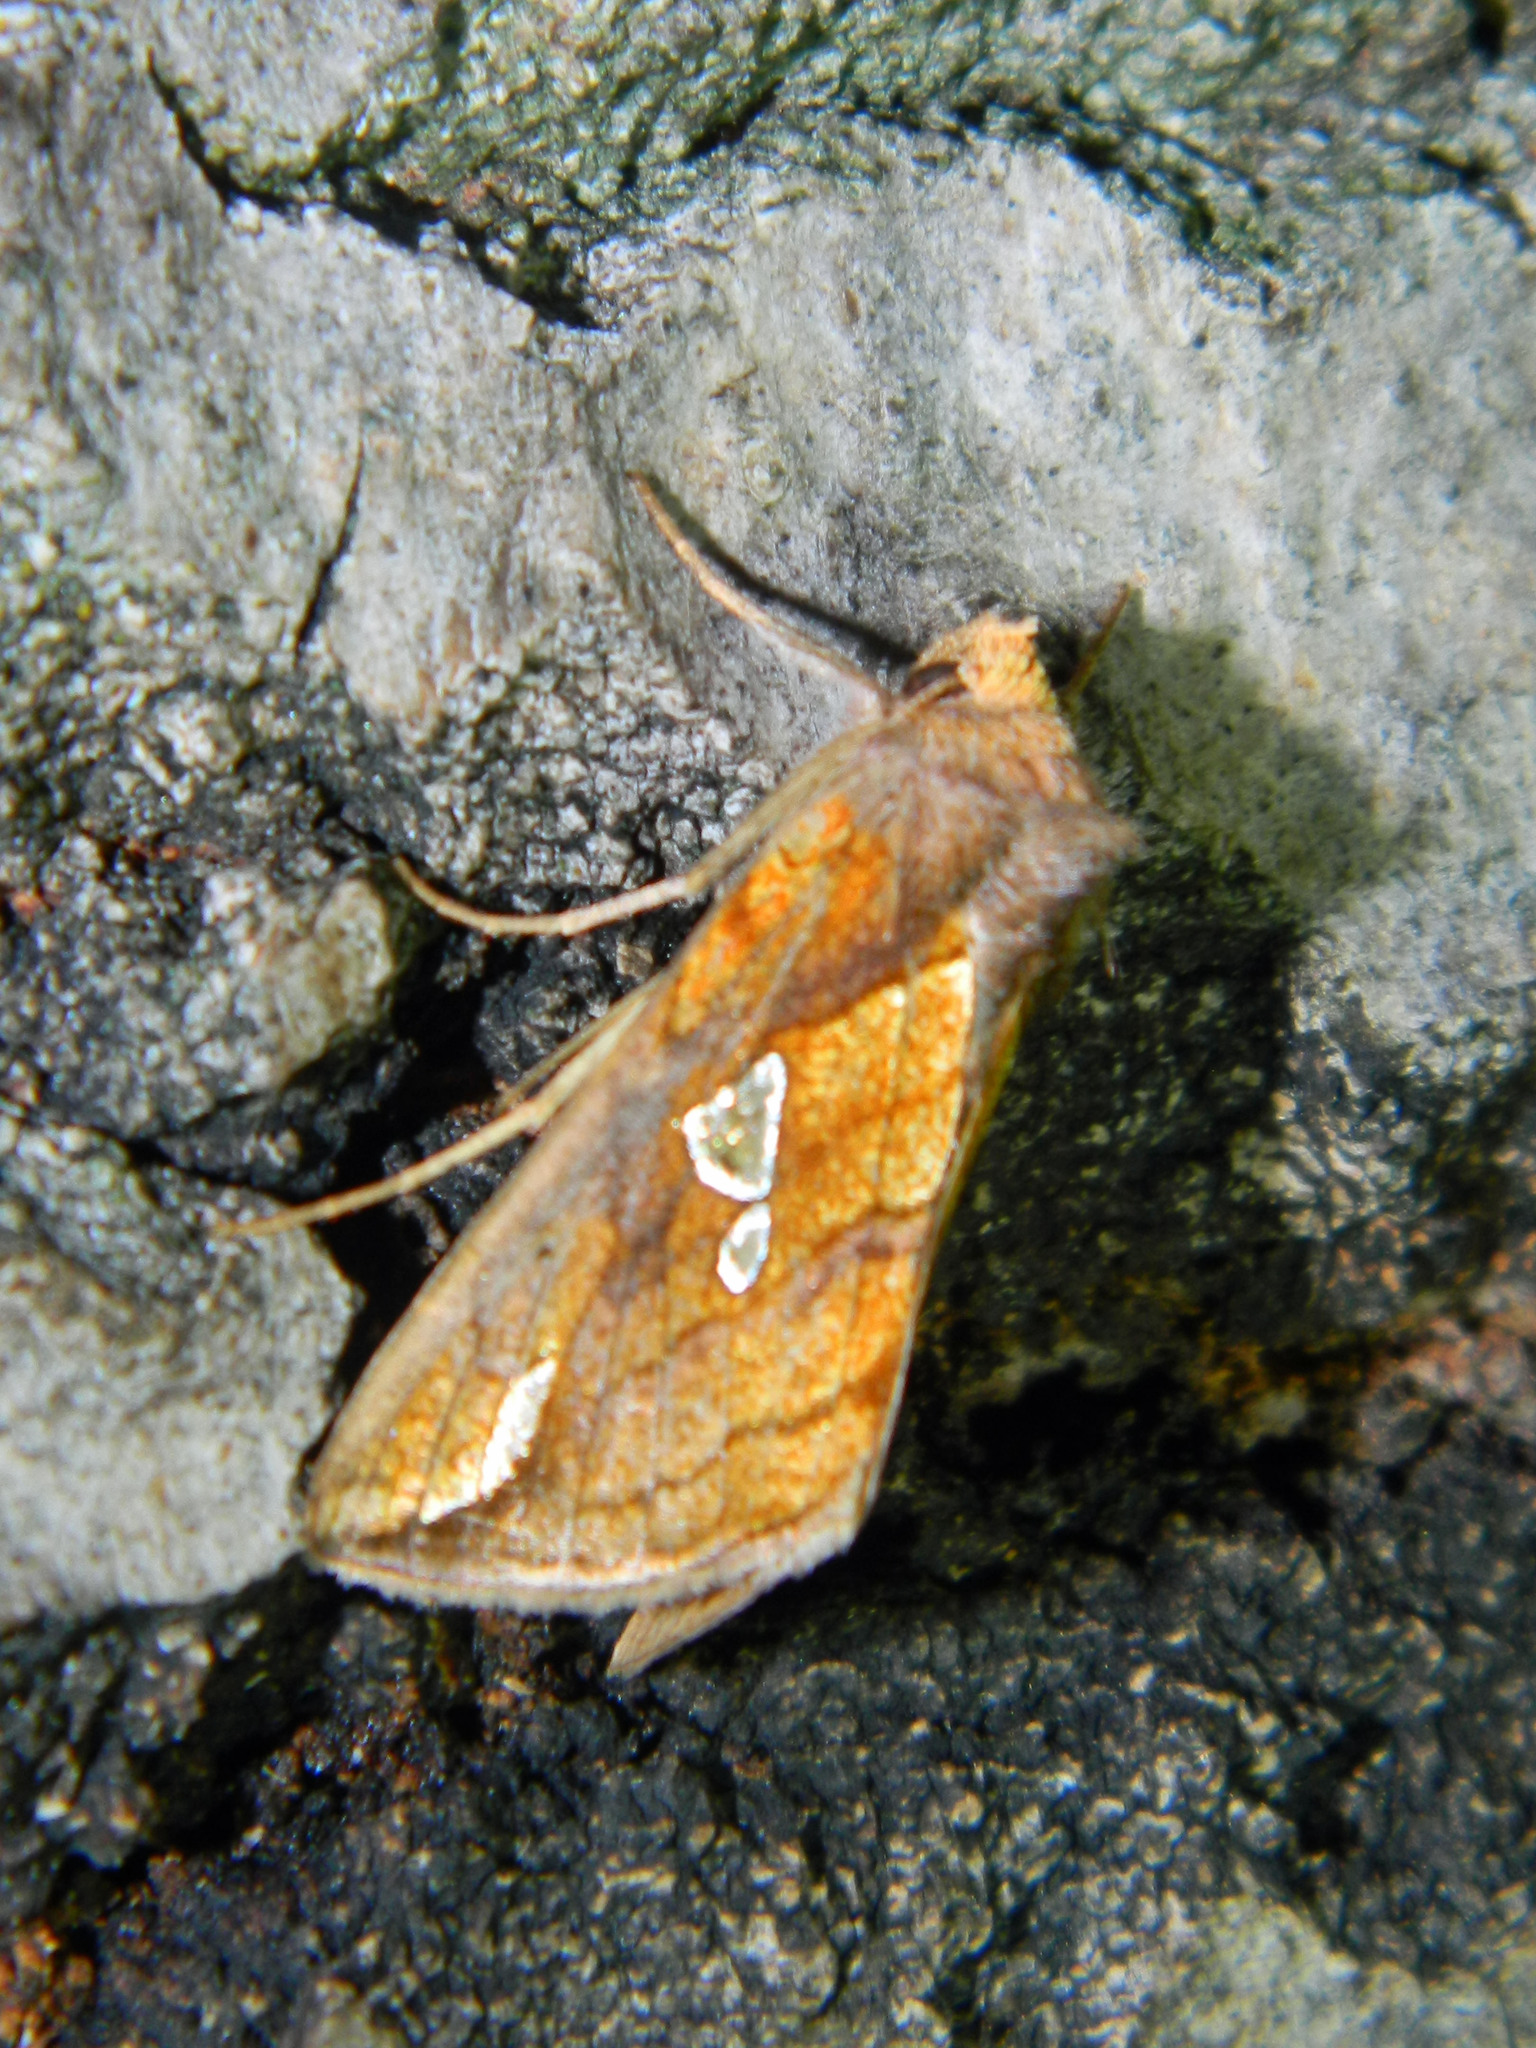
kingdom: Animalia
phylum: Arthropoda
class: Insecta
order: Lepidoptera
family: Noctuidae
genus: Plusia
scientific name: Plusia putnami
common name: Lempke's gold spot
